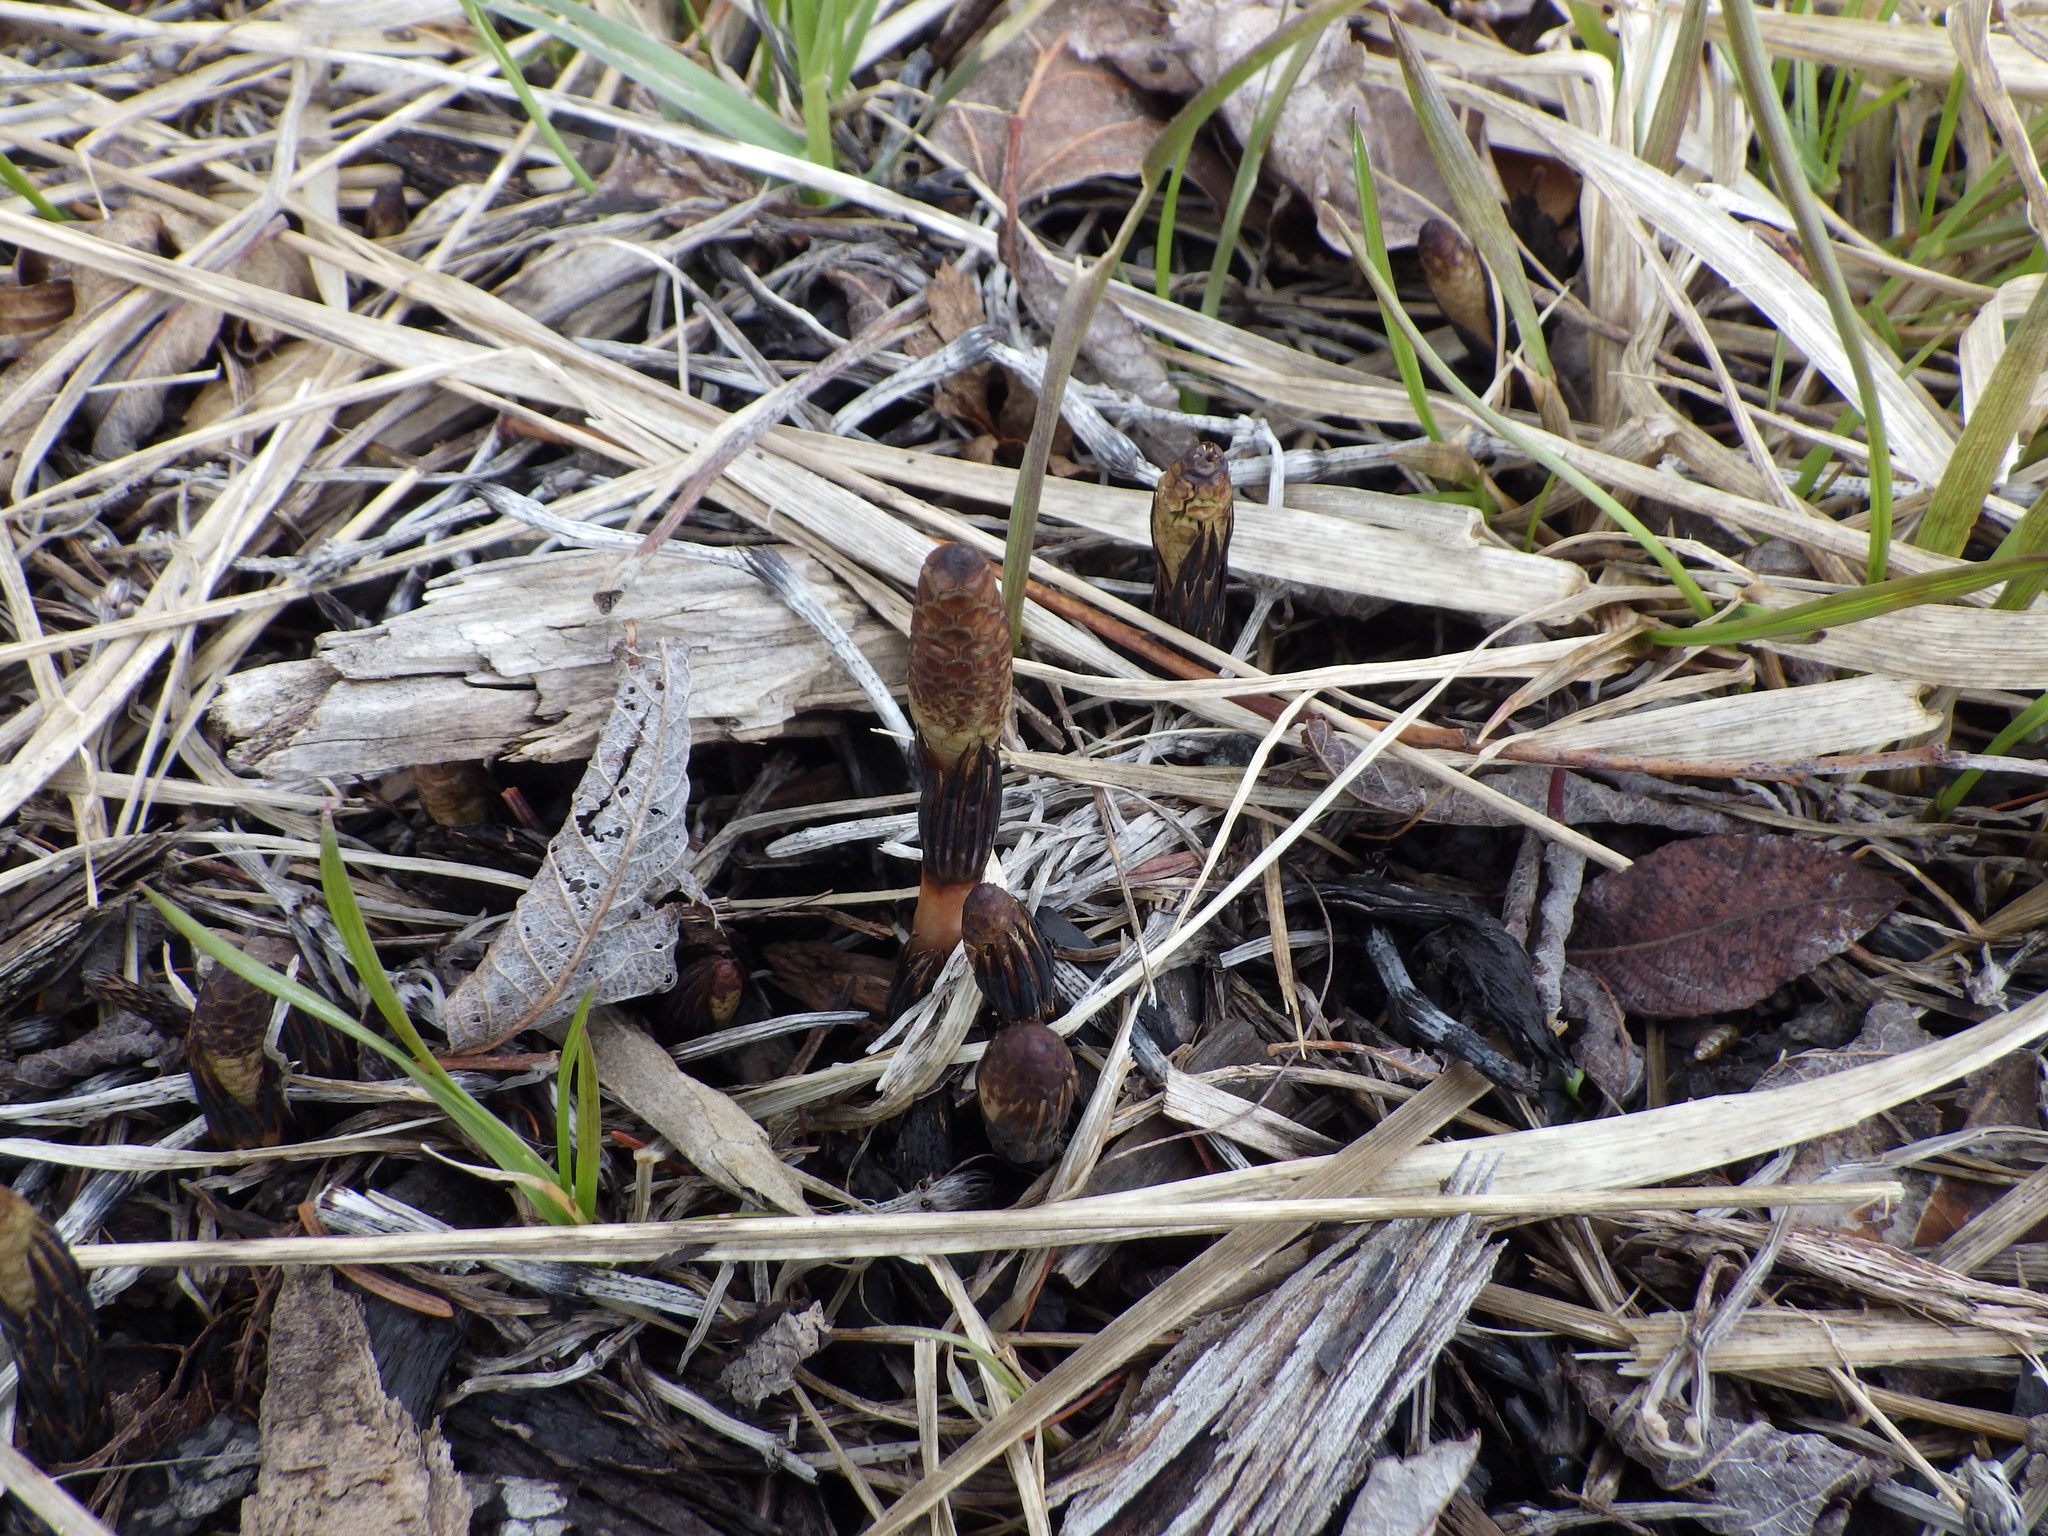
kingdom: Plantae
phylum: Tracheophyta
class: Polypodiopsida
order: Equisetales
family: Equisetaceae
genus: Equisetum
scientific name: Equisetum arvense
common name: Field horsetail
